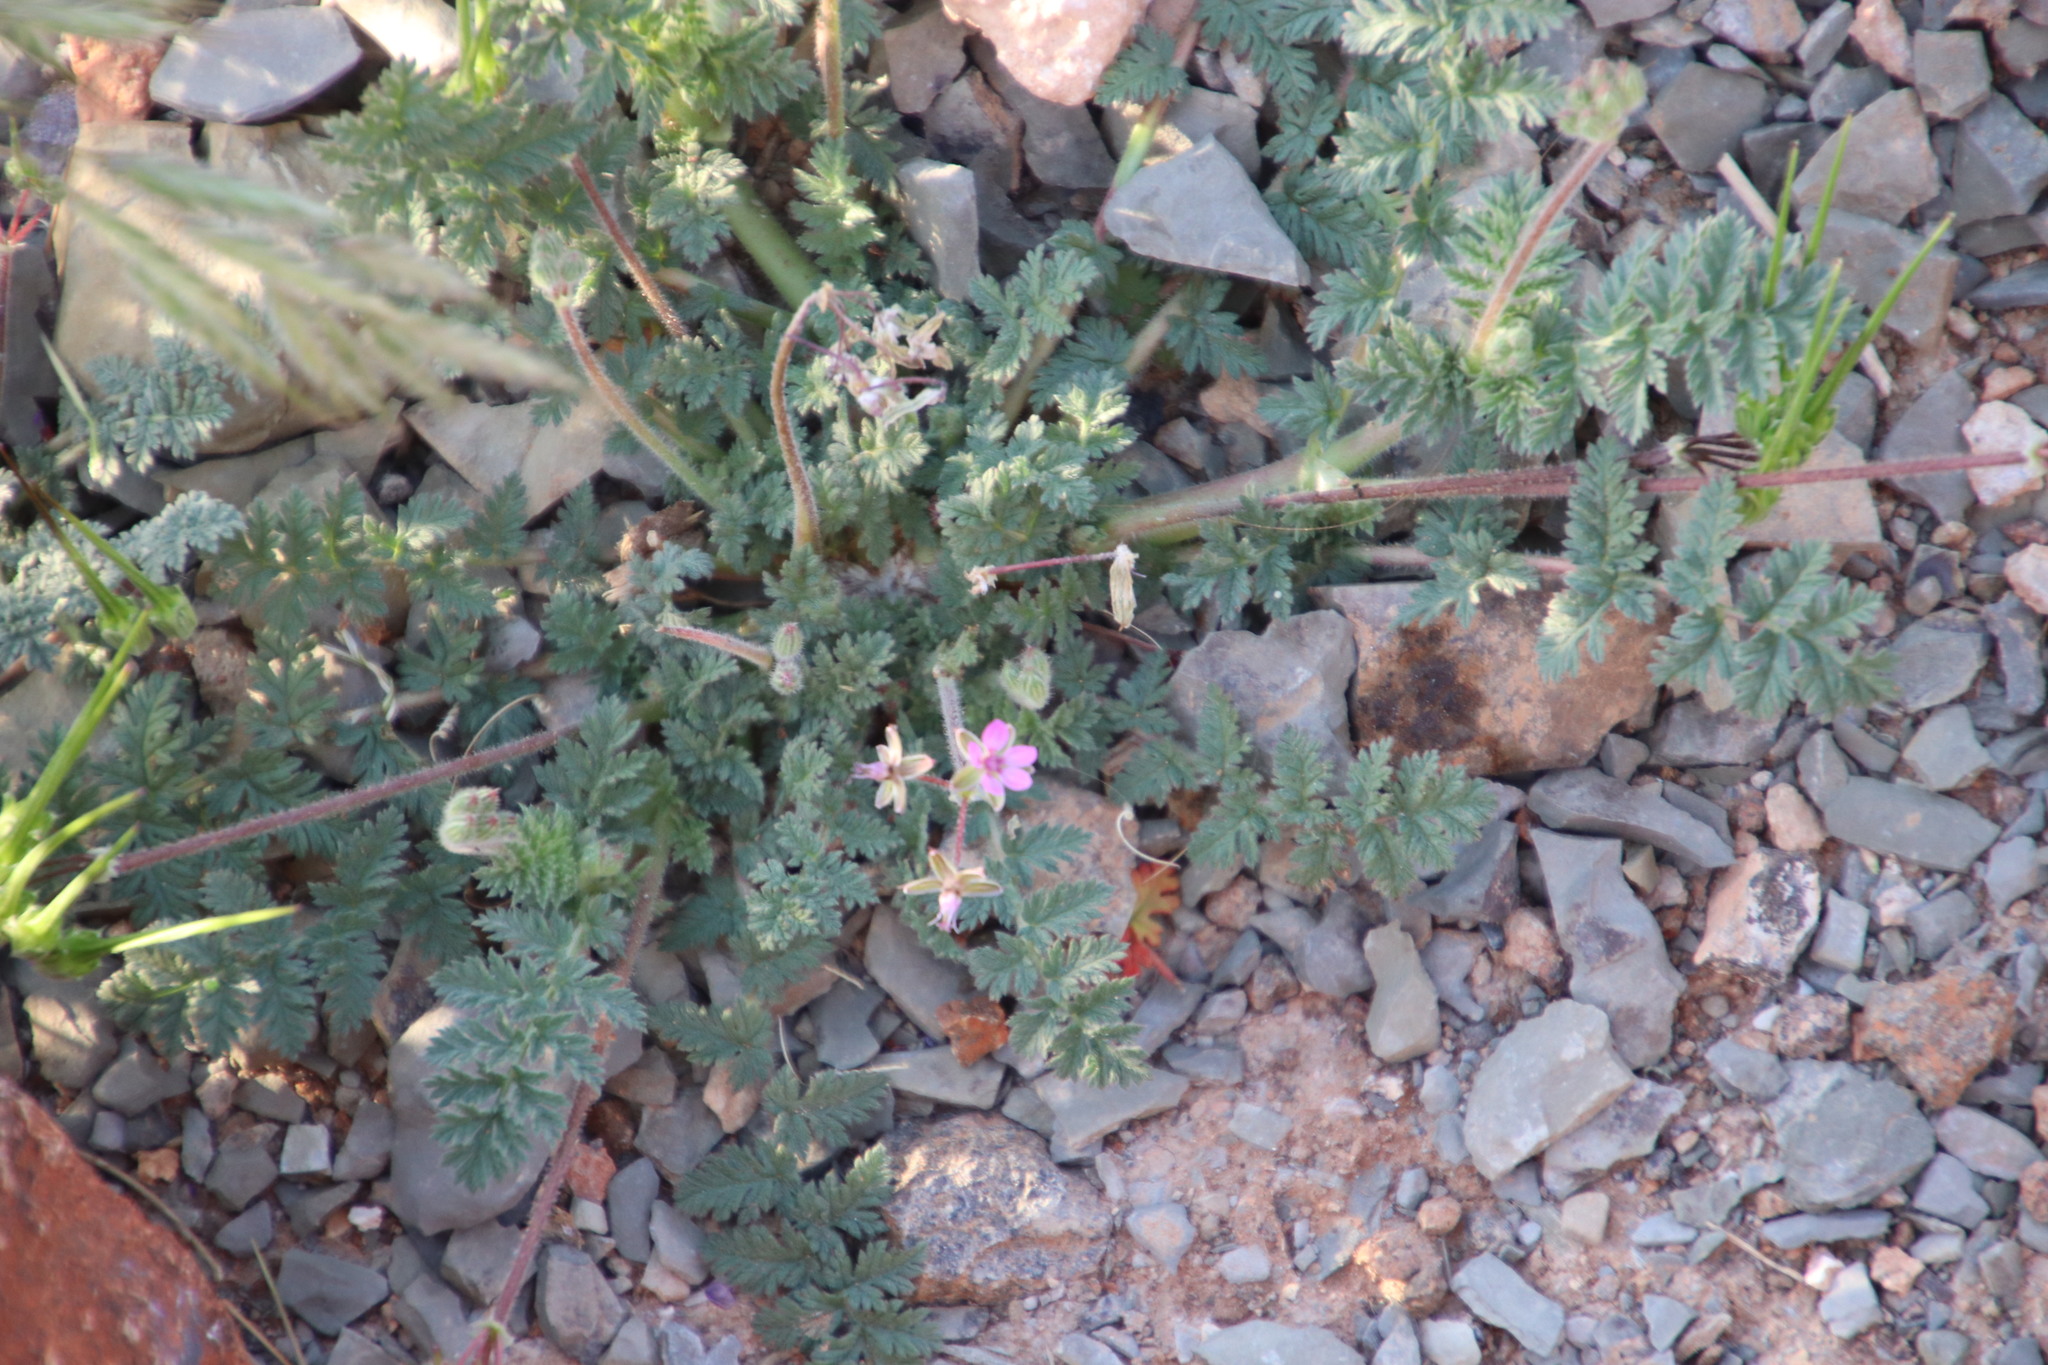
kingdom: Plantae
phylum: Tracheophyta
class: Magnoliopsida
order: Geraniales
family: Geraniaceae
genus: Erodium
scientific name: Erodium cicutarium
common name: Common stork's-bill
